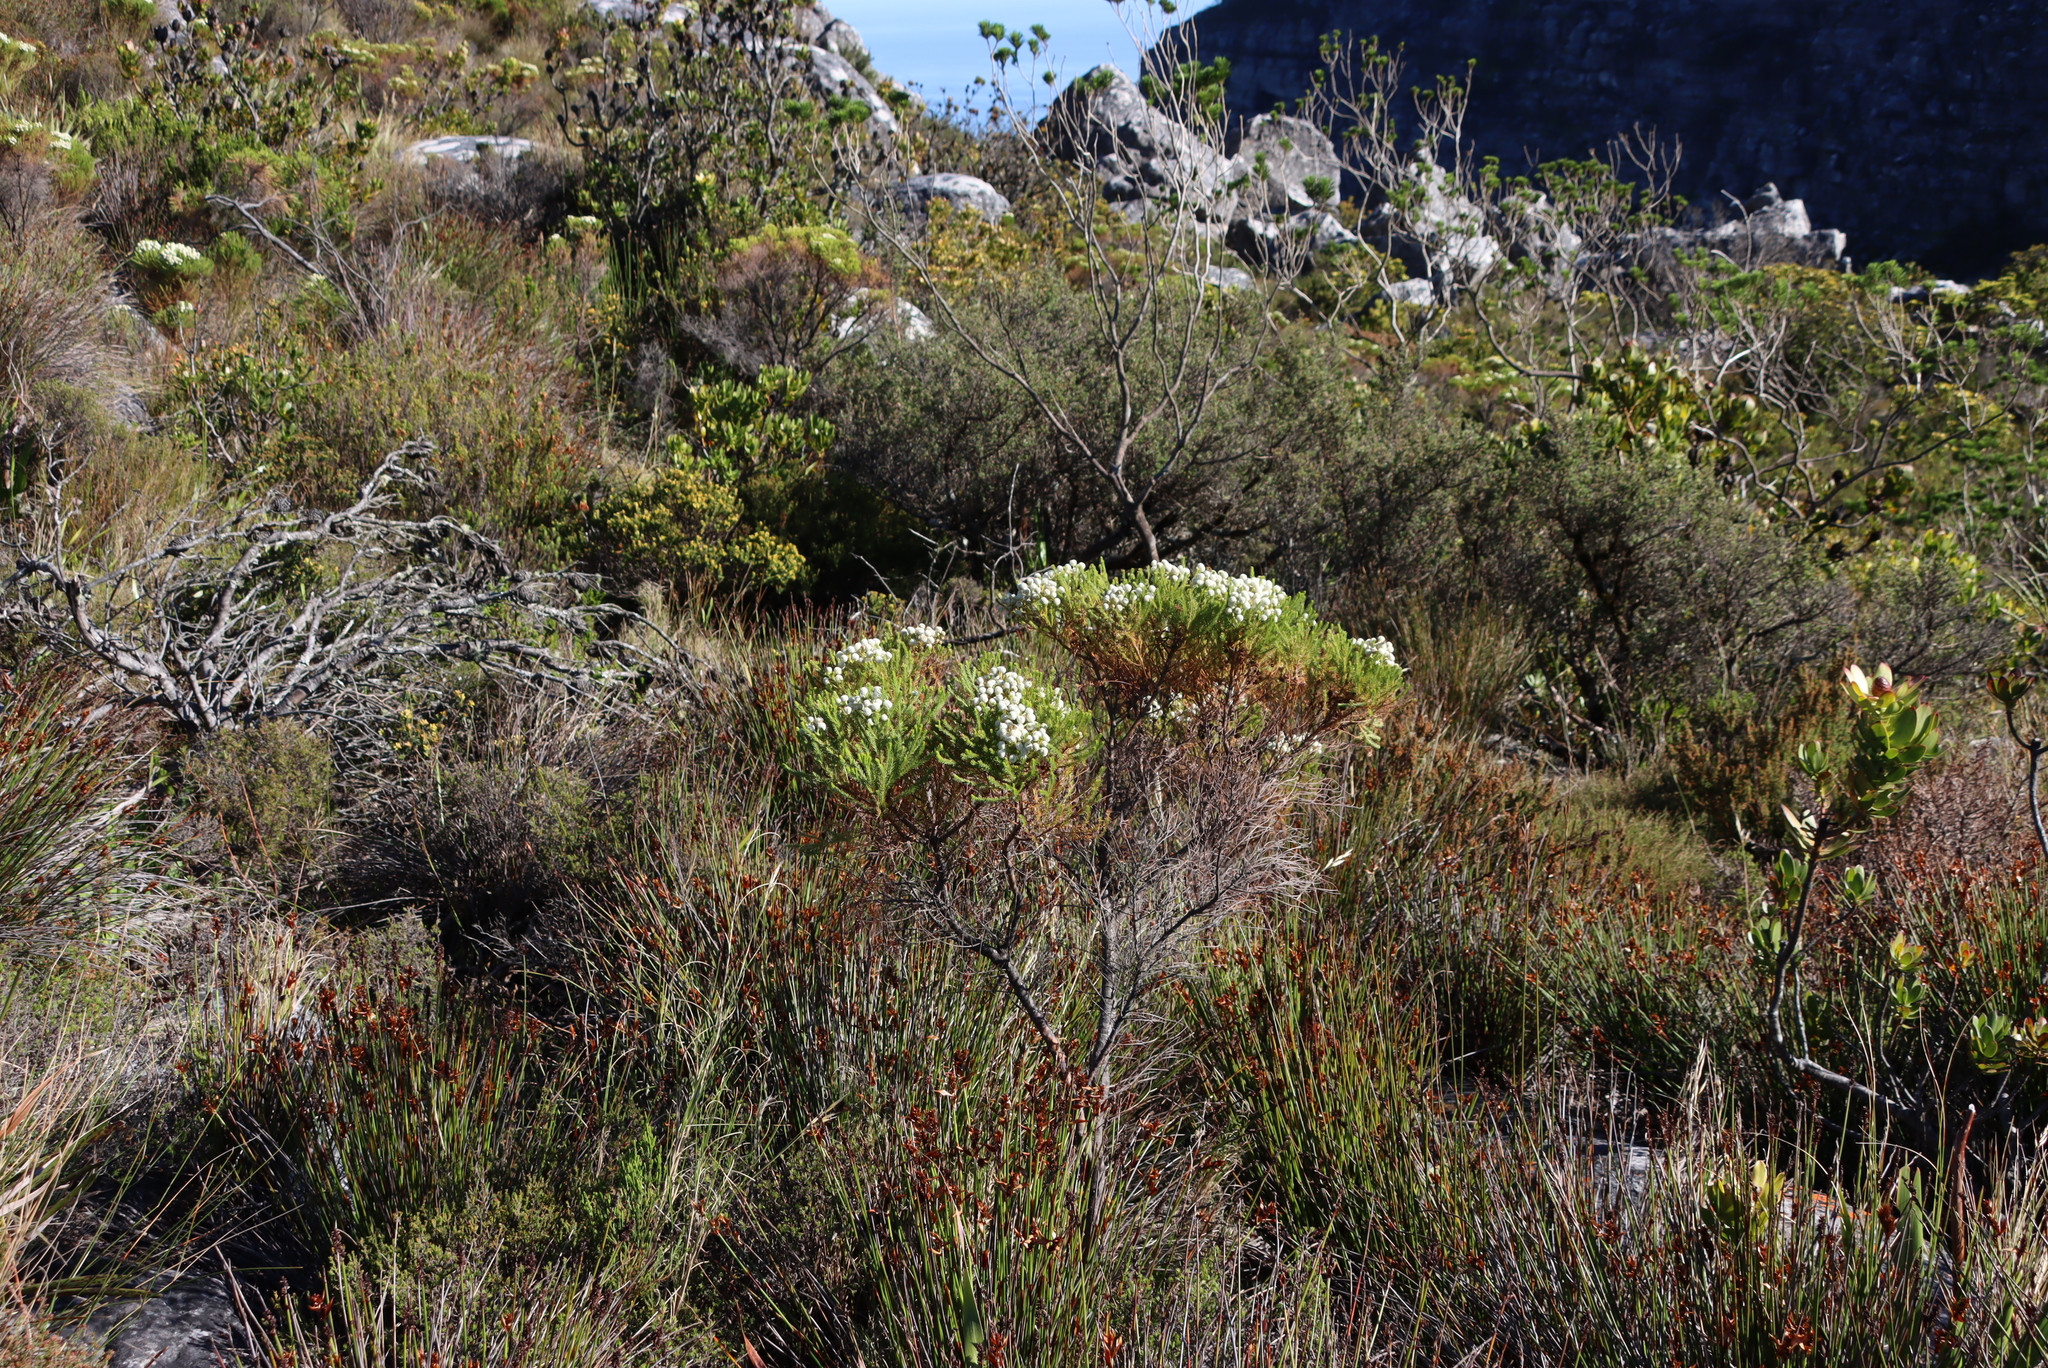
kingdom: Plantae
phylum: Tracheophyta
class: Magnoliopsida
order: Bruniales
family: Bruniaceae
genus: Berzelia
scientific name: Berzelia lanuginosa
